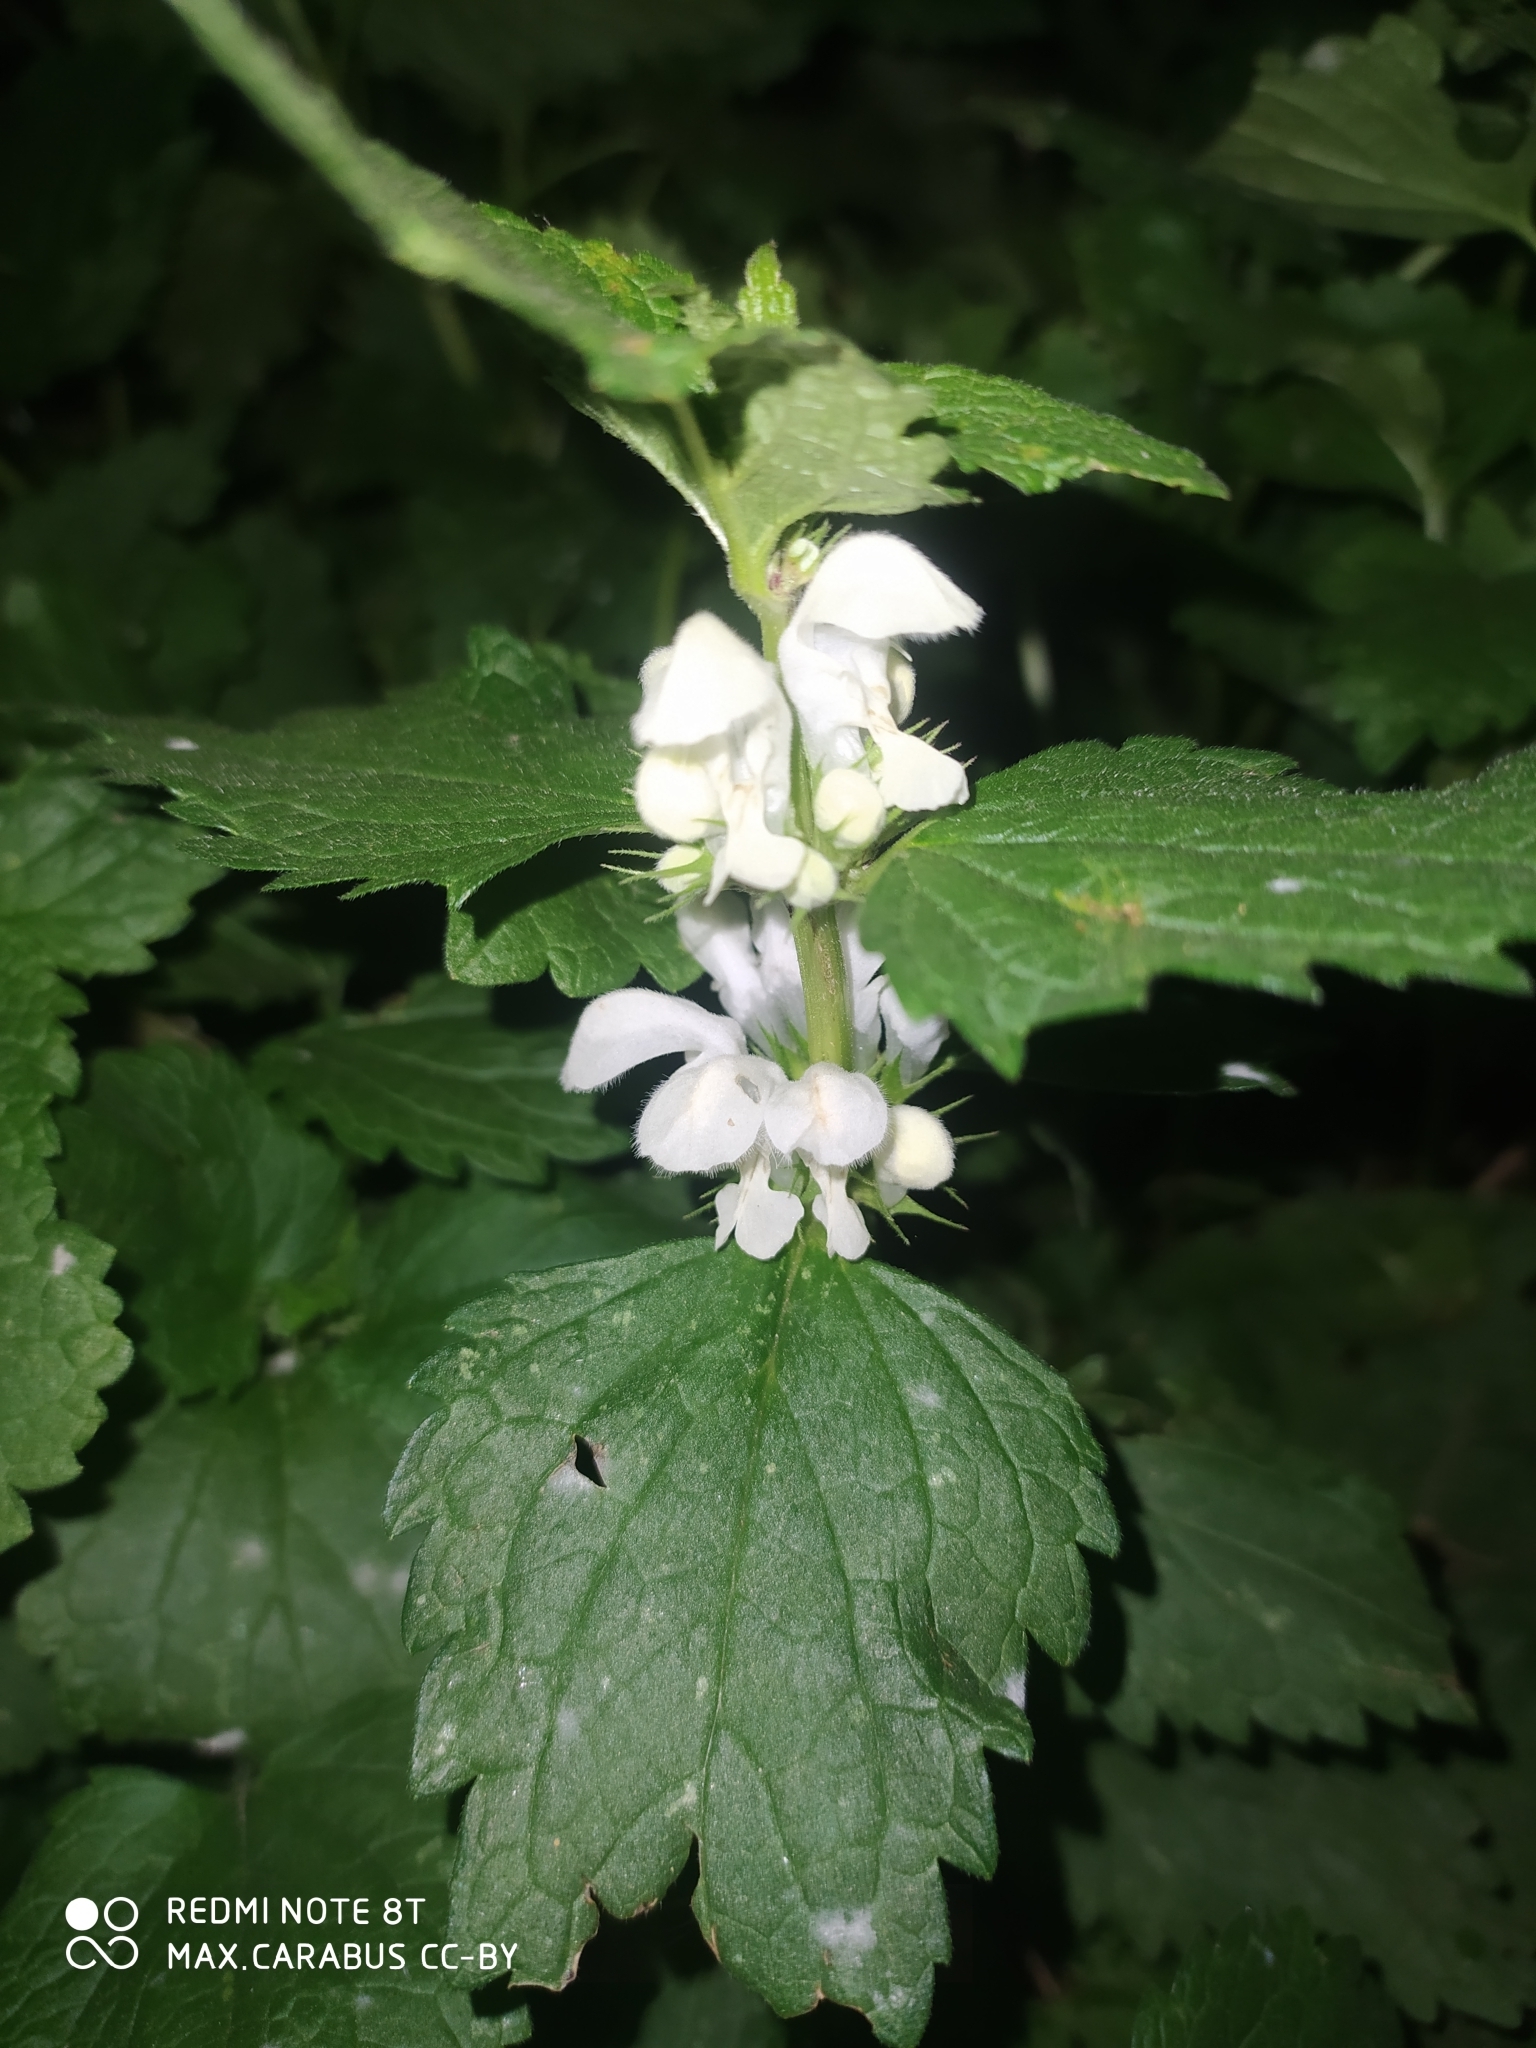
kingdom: Plantae
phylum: Tracheophyta
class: Magnoliopsida
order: Lamiales
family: Lamiaceae
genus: Lamium
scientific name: Lamium album
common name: White dead-nettle
